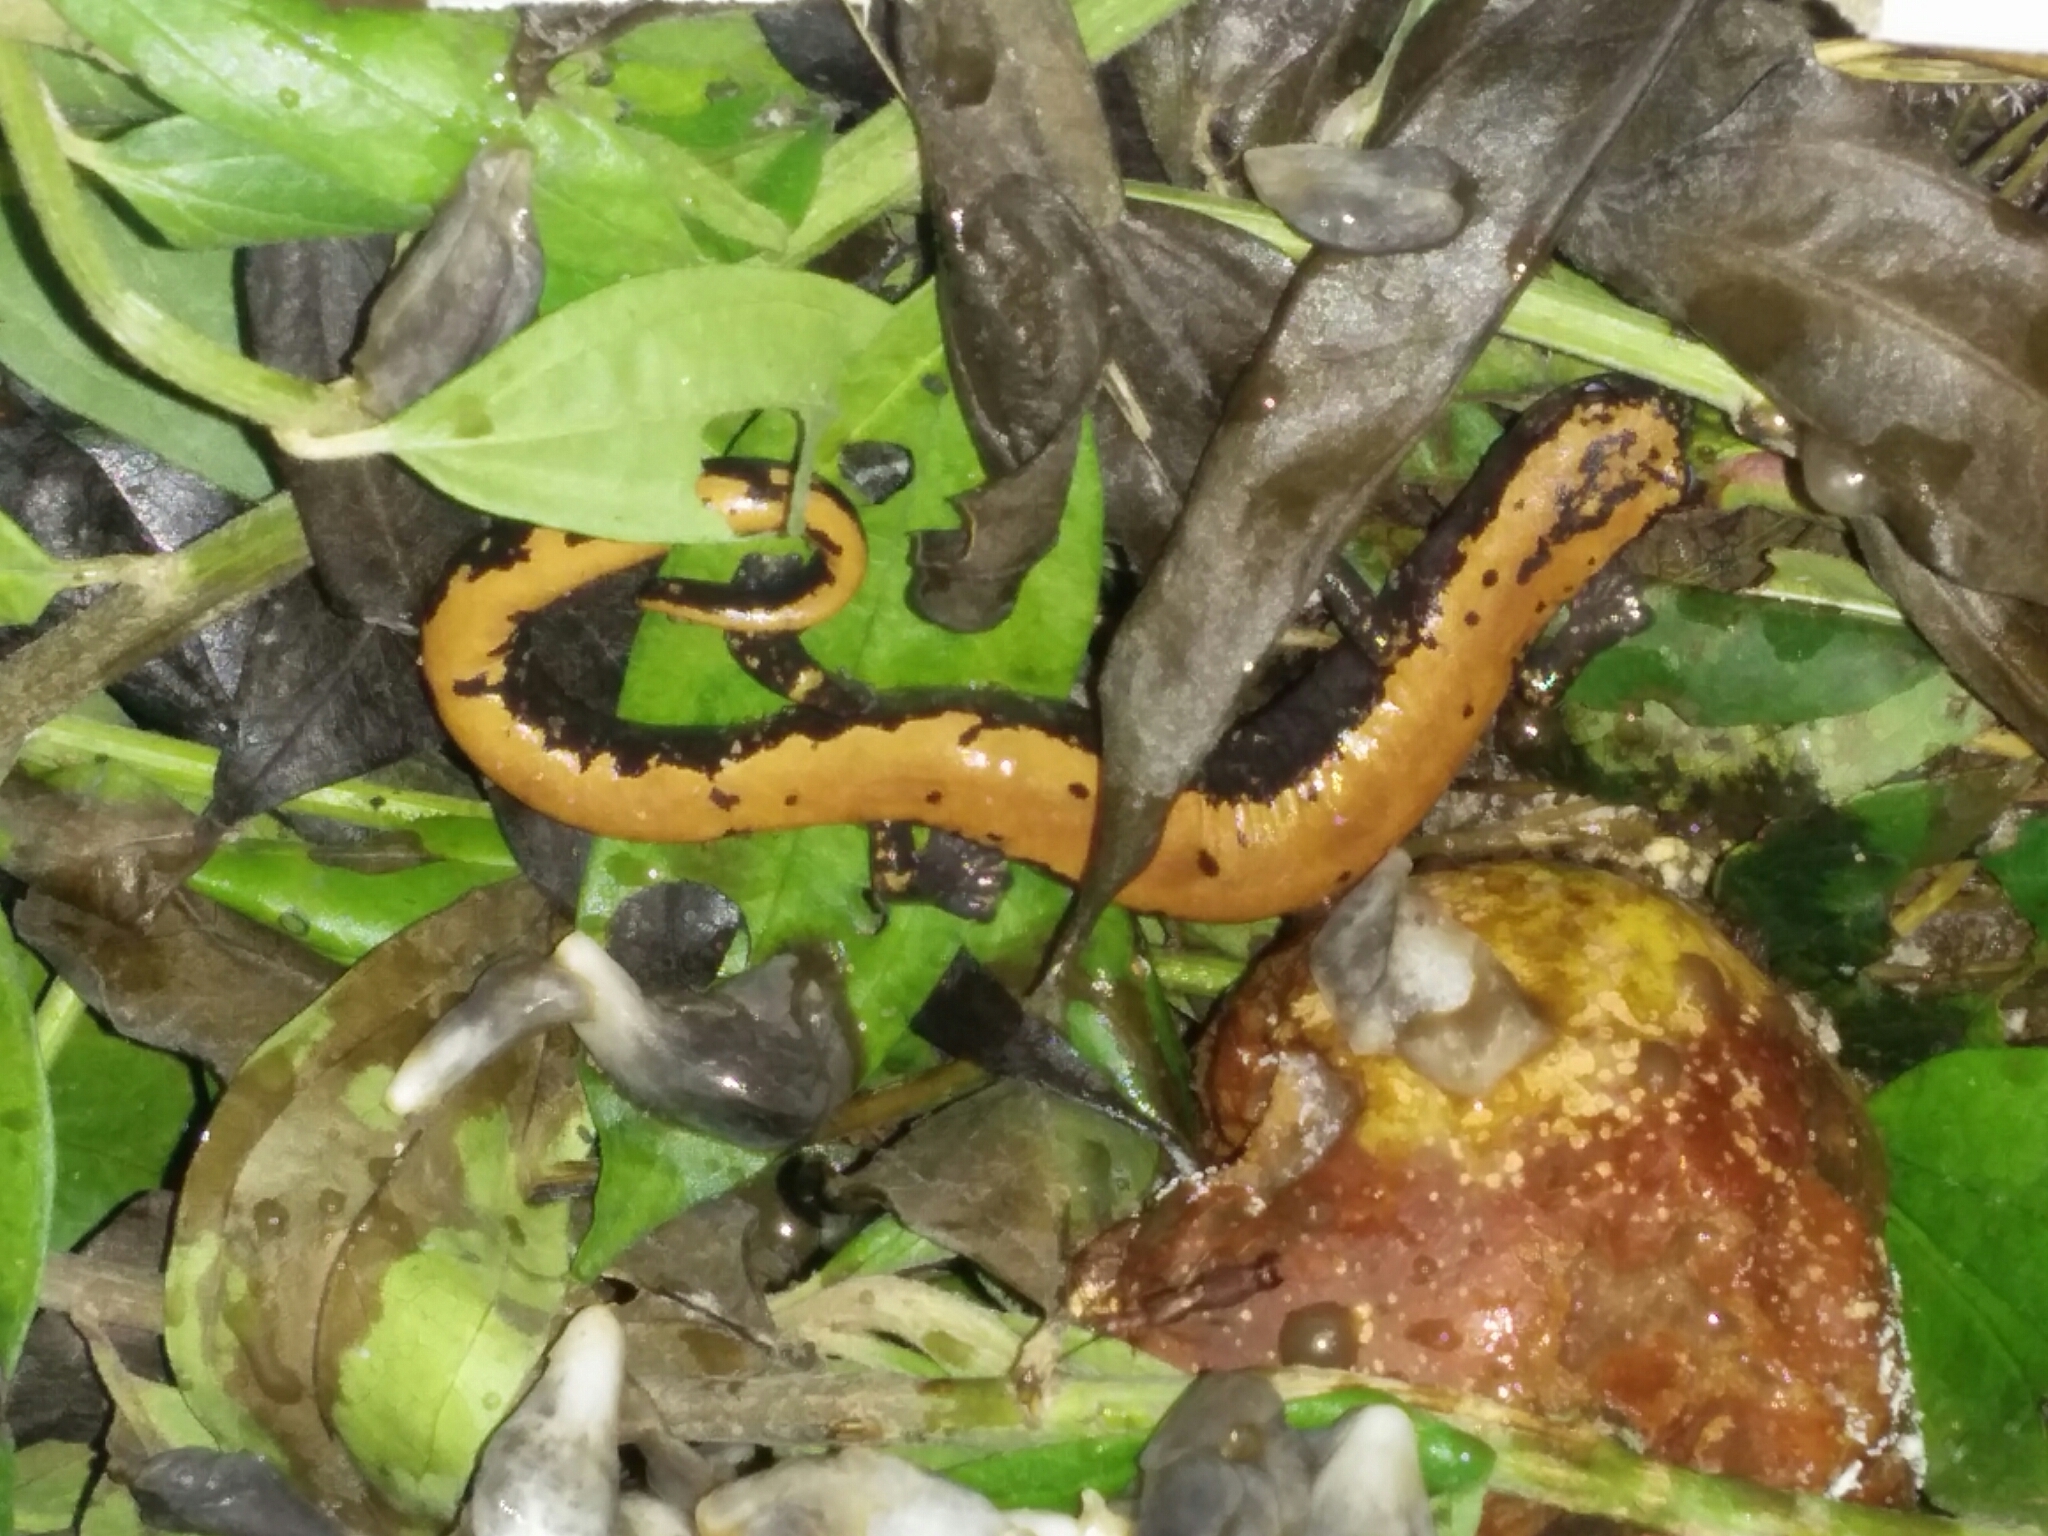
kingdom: Animalia
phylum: Chordata
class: Amphibia
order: Caudata
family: Plethodontidae
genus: Bolitoglossa
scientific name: Bolitoglossa platydactyla
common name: Broad-footed salamander
